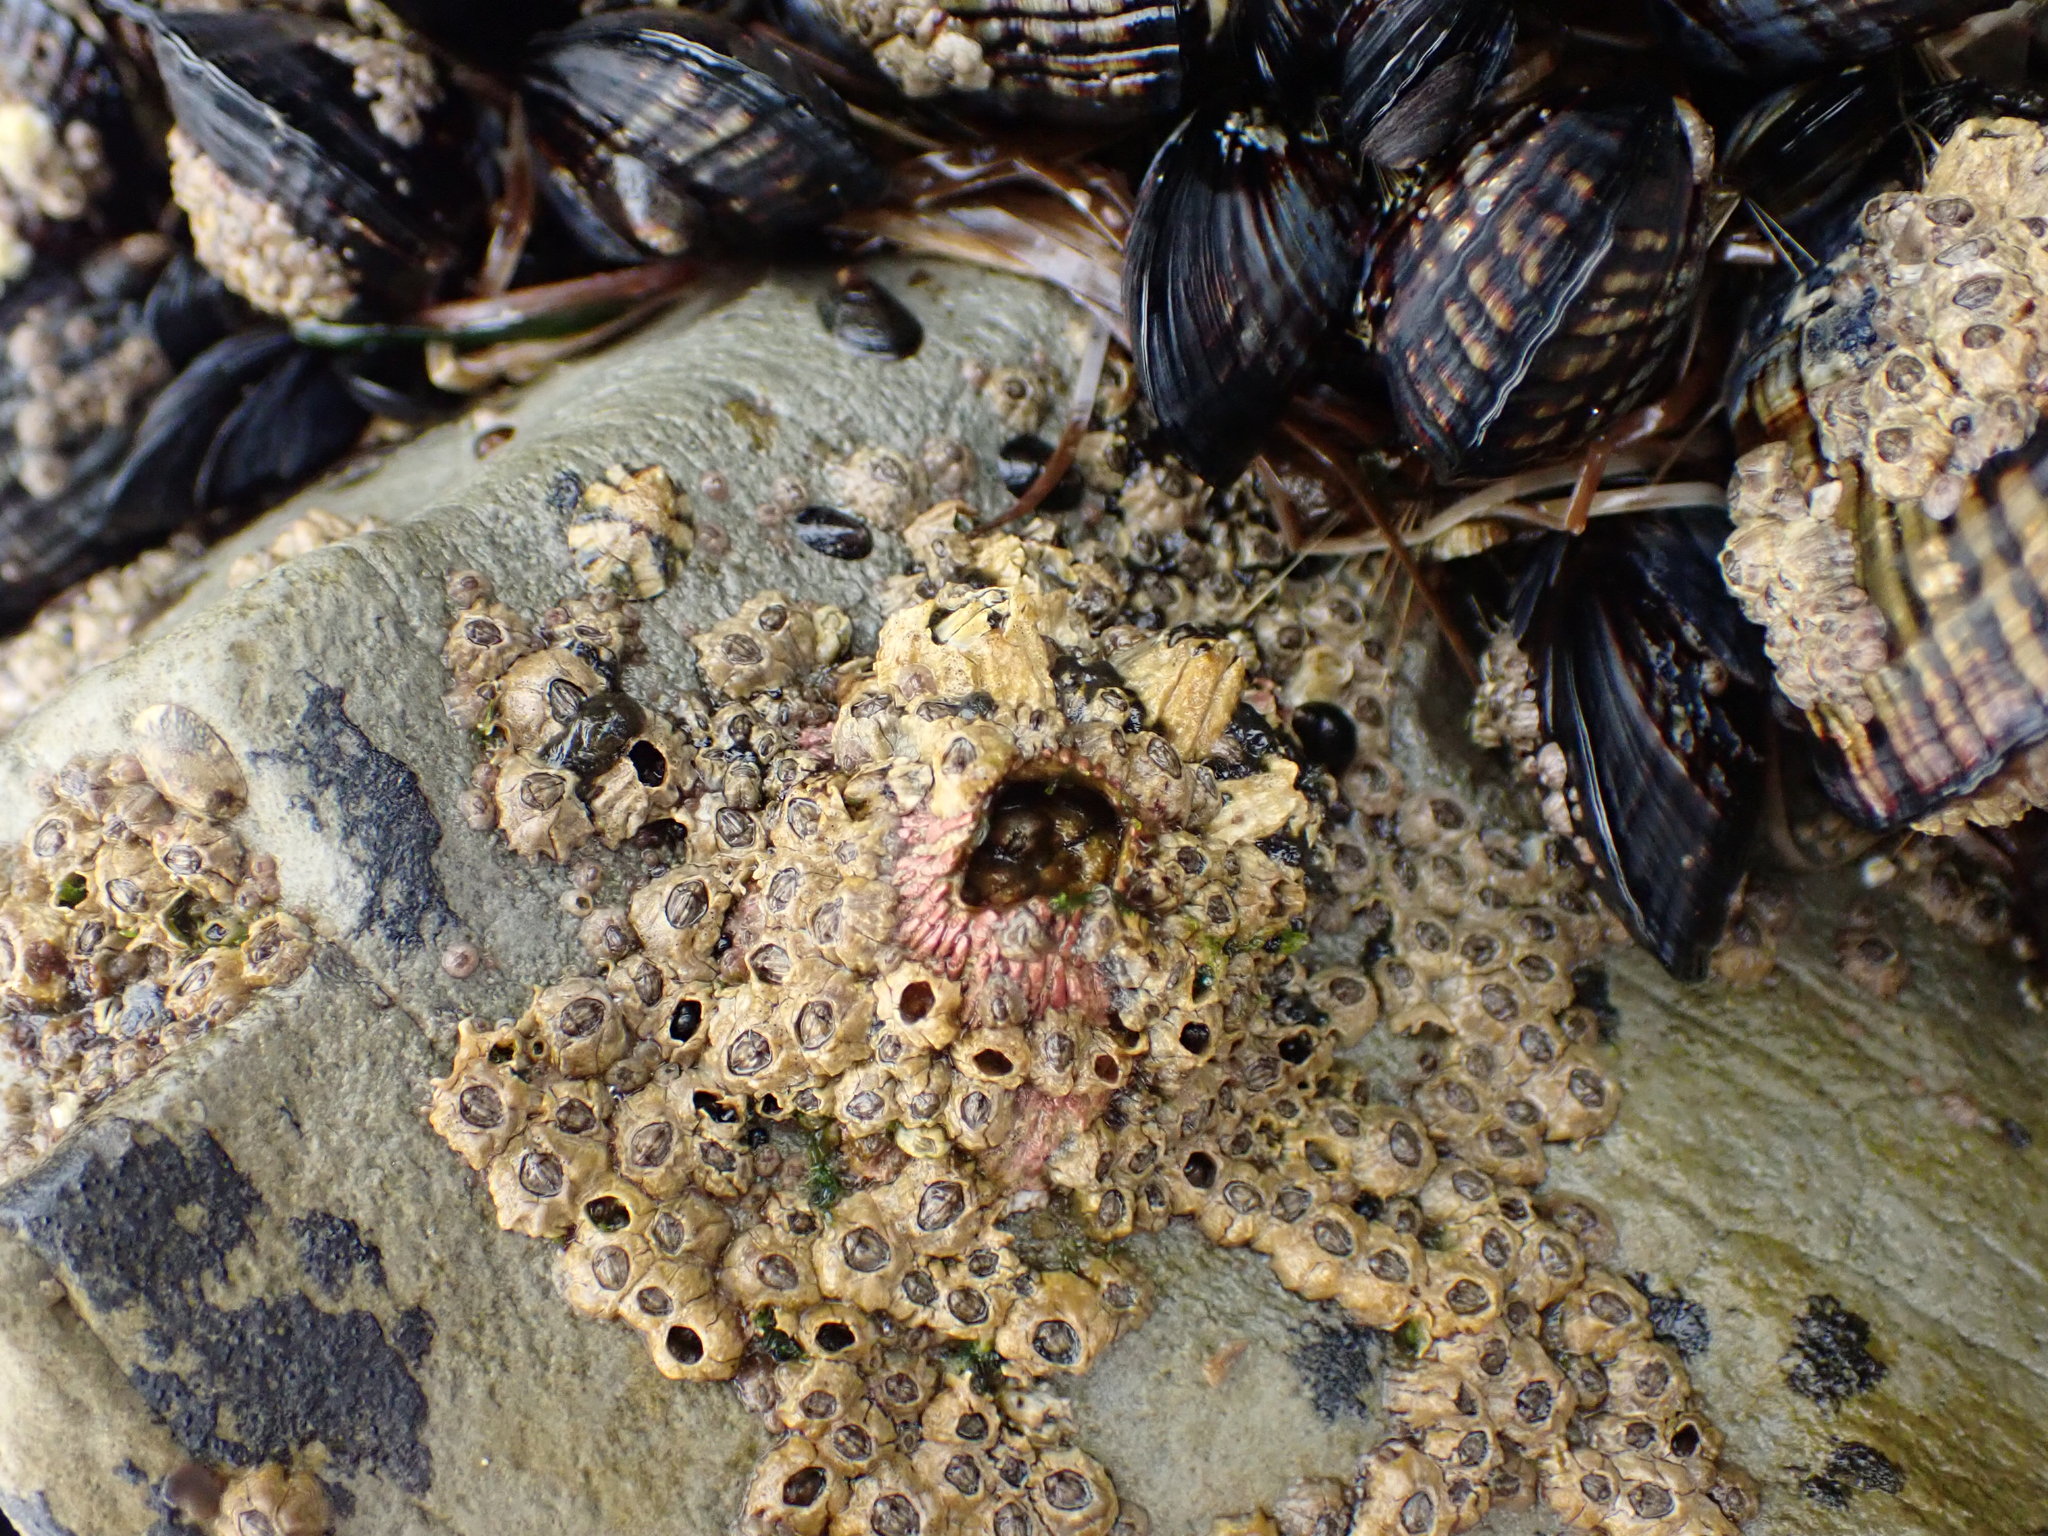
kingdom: Animalia
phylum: Arthropoda
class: Maxillopoda
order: Sessilia
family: Tetraclitidae
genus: Tetraclita
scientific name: Tetraclita rubescens
